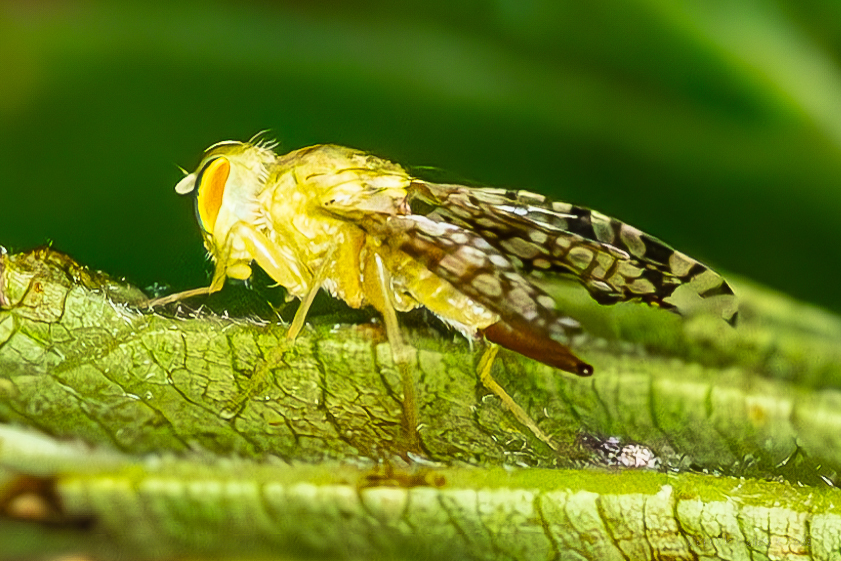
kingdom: Animalia
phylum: Arthropoda
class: Insecta
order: Diptera
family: Tephritidae
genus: Euaresta
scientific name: Euaresta aequalis
